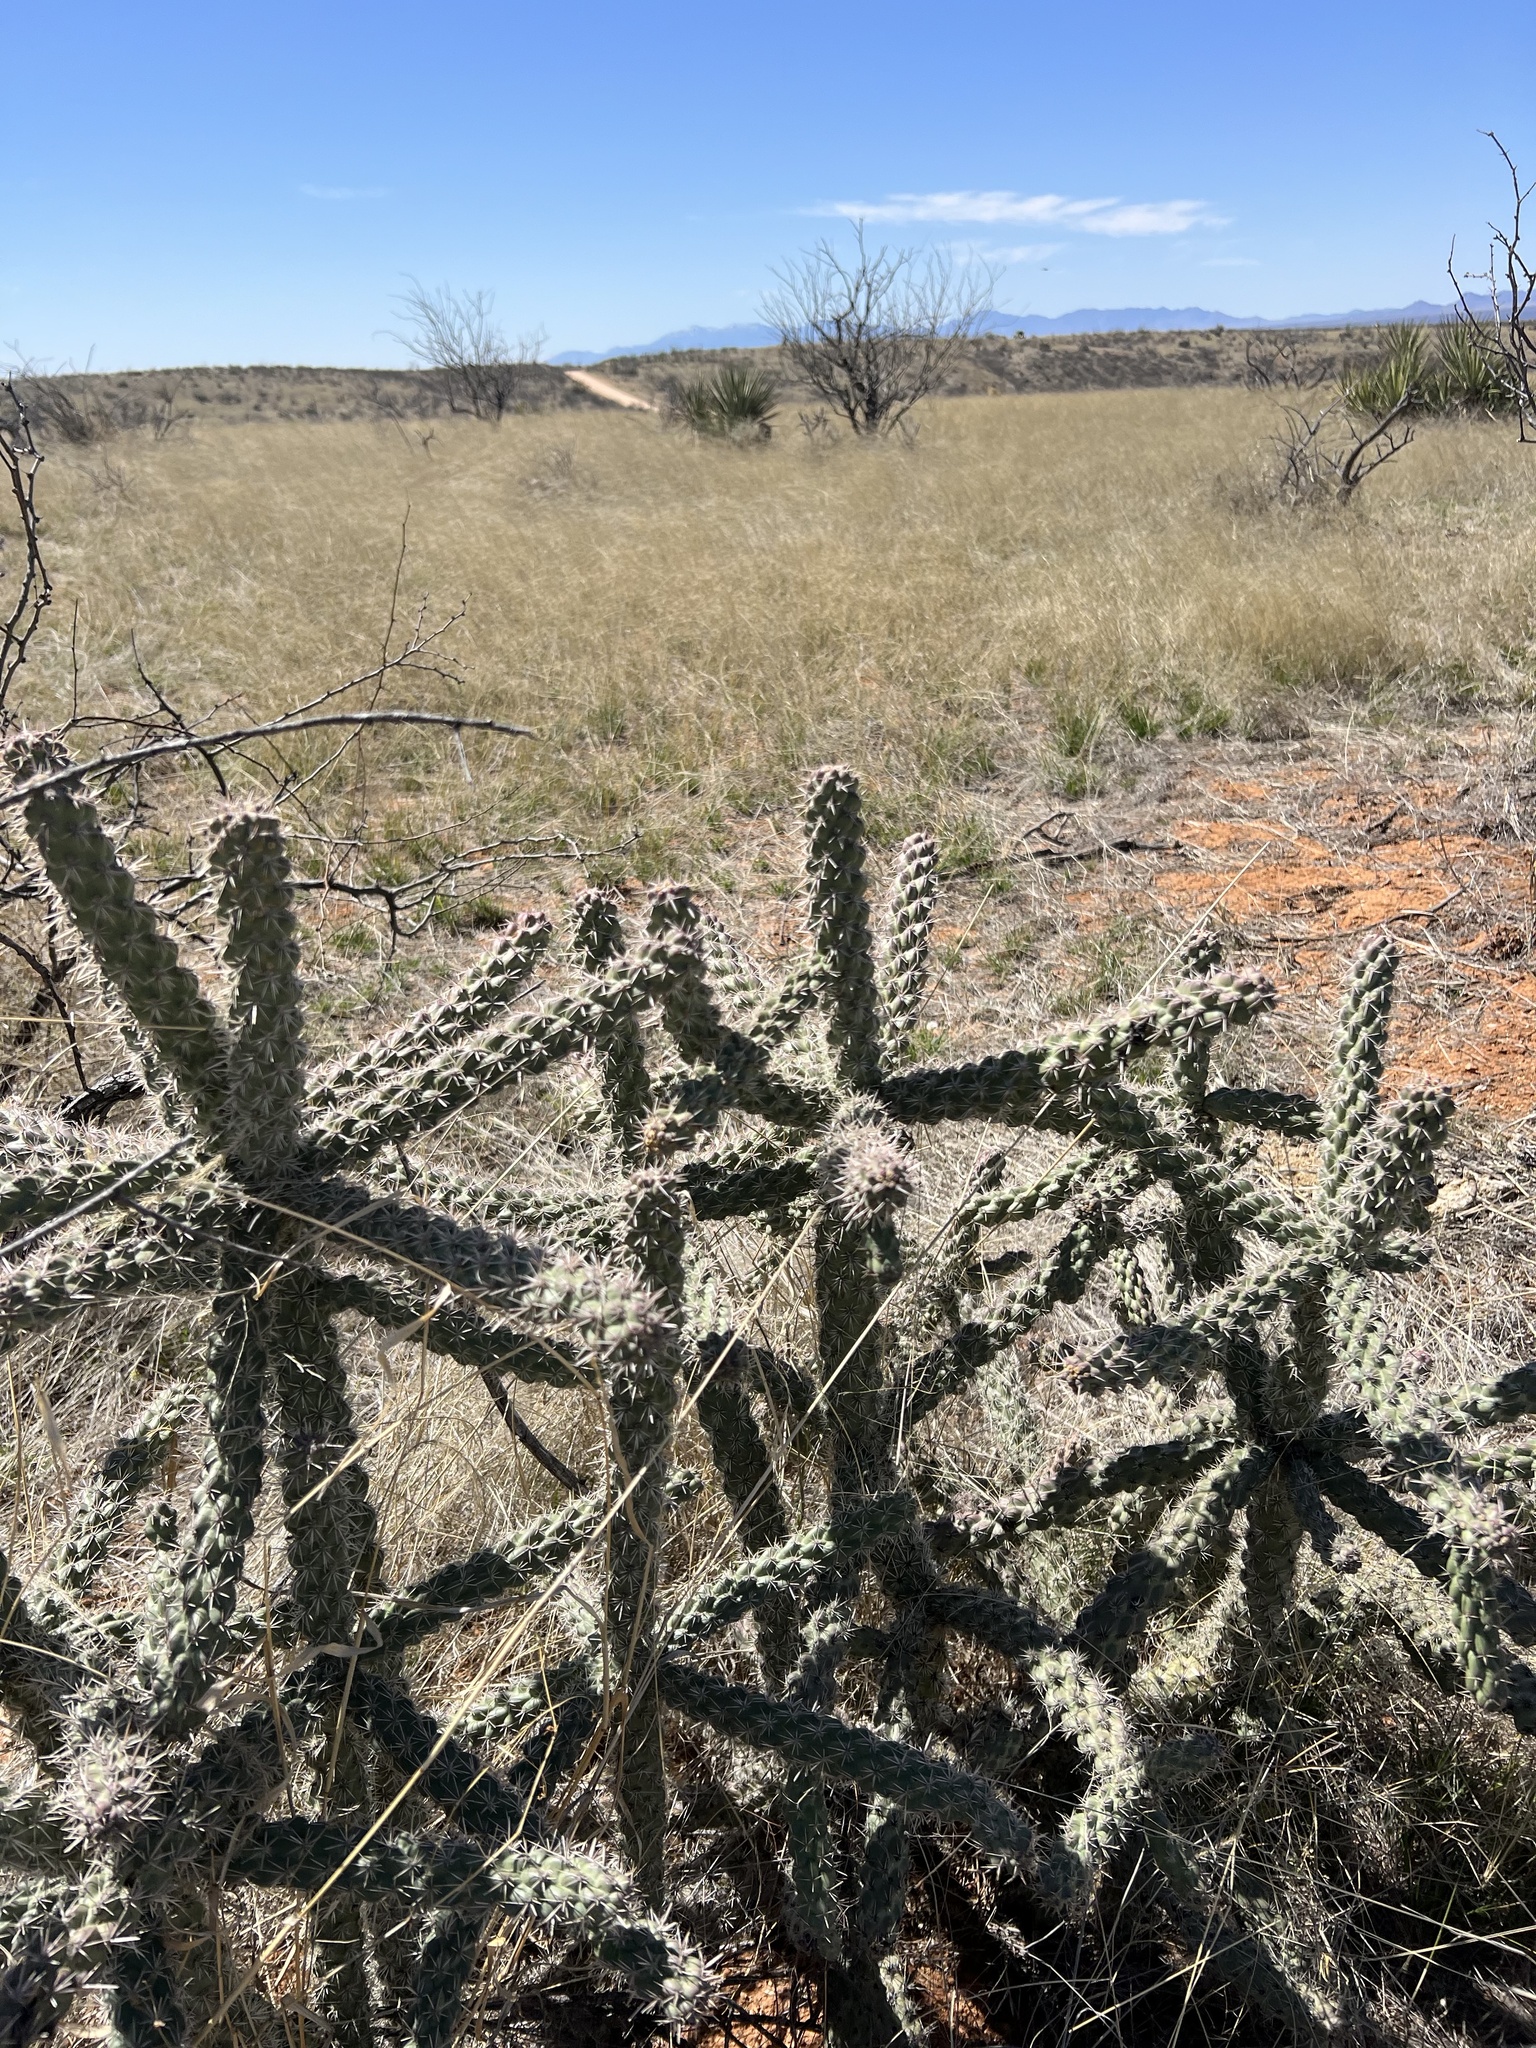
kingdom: Plantae
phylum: Tracheophyta
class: Magnoliopsida
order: Caryophyllales
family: Cactaceae
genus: Cylindropuntia
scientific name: Cylindropuntia imbricata
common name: Candelabrum cactus
